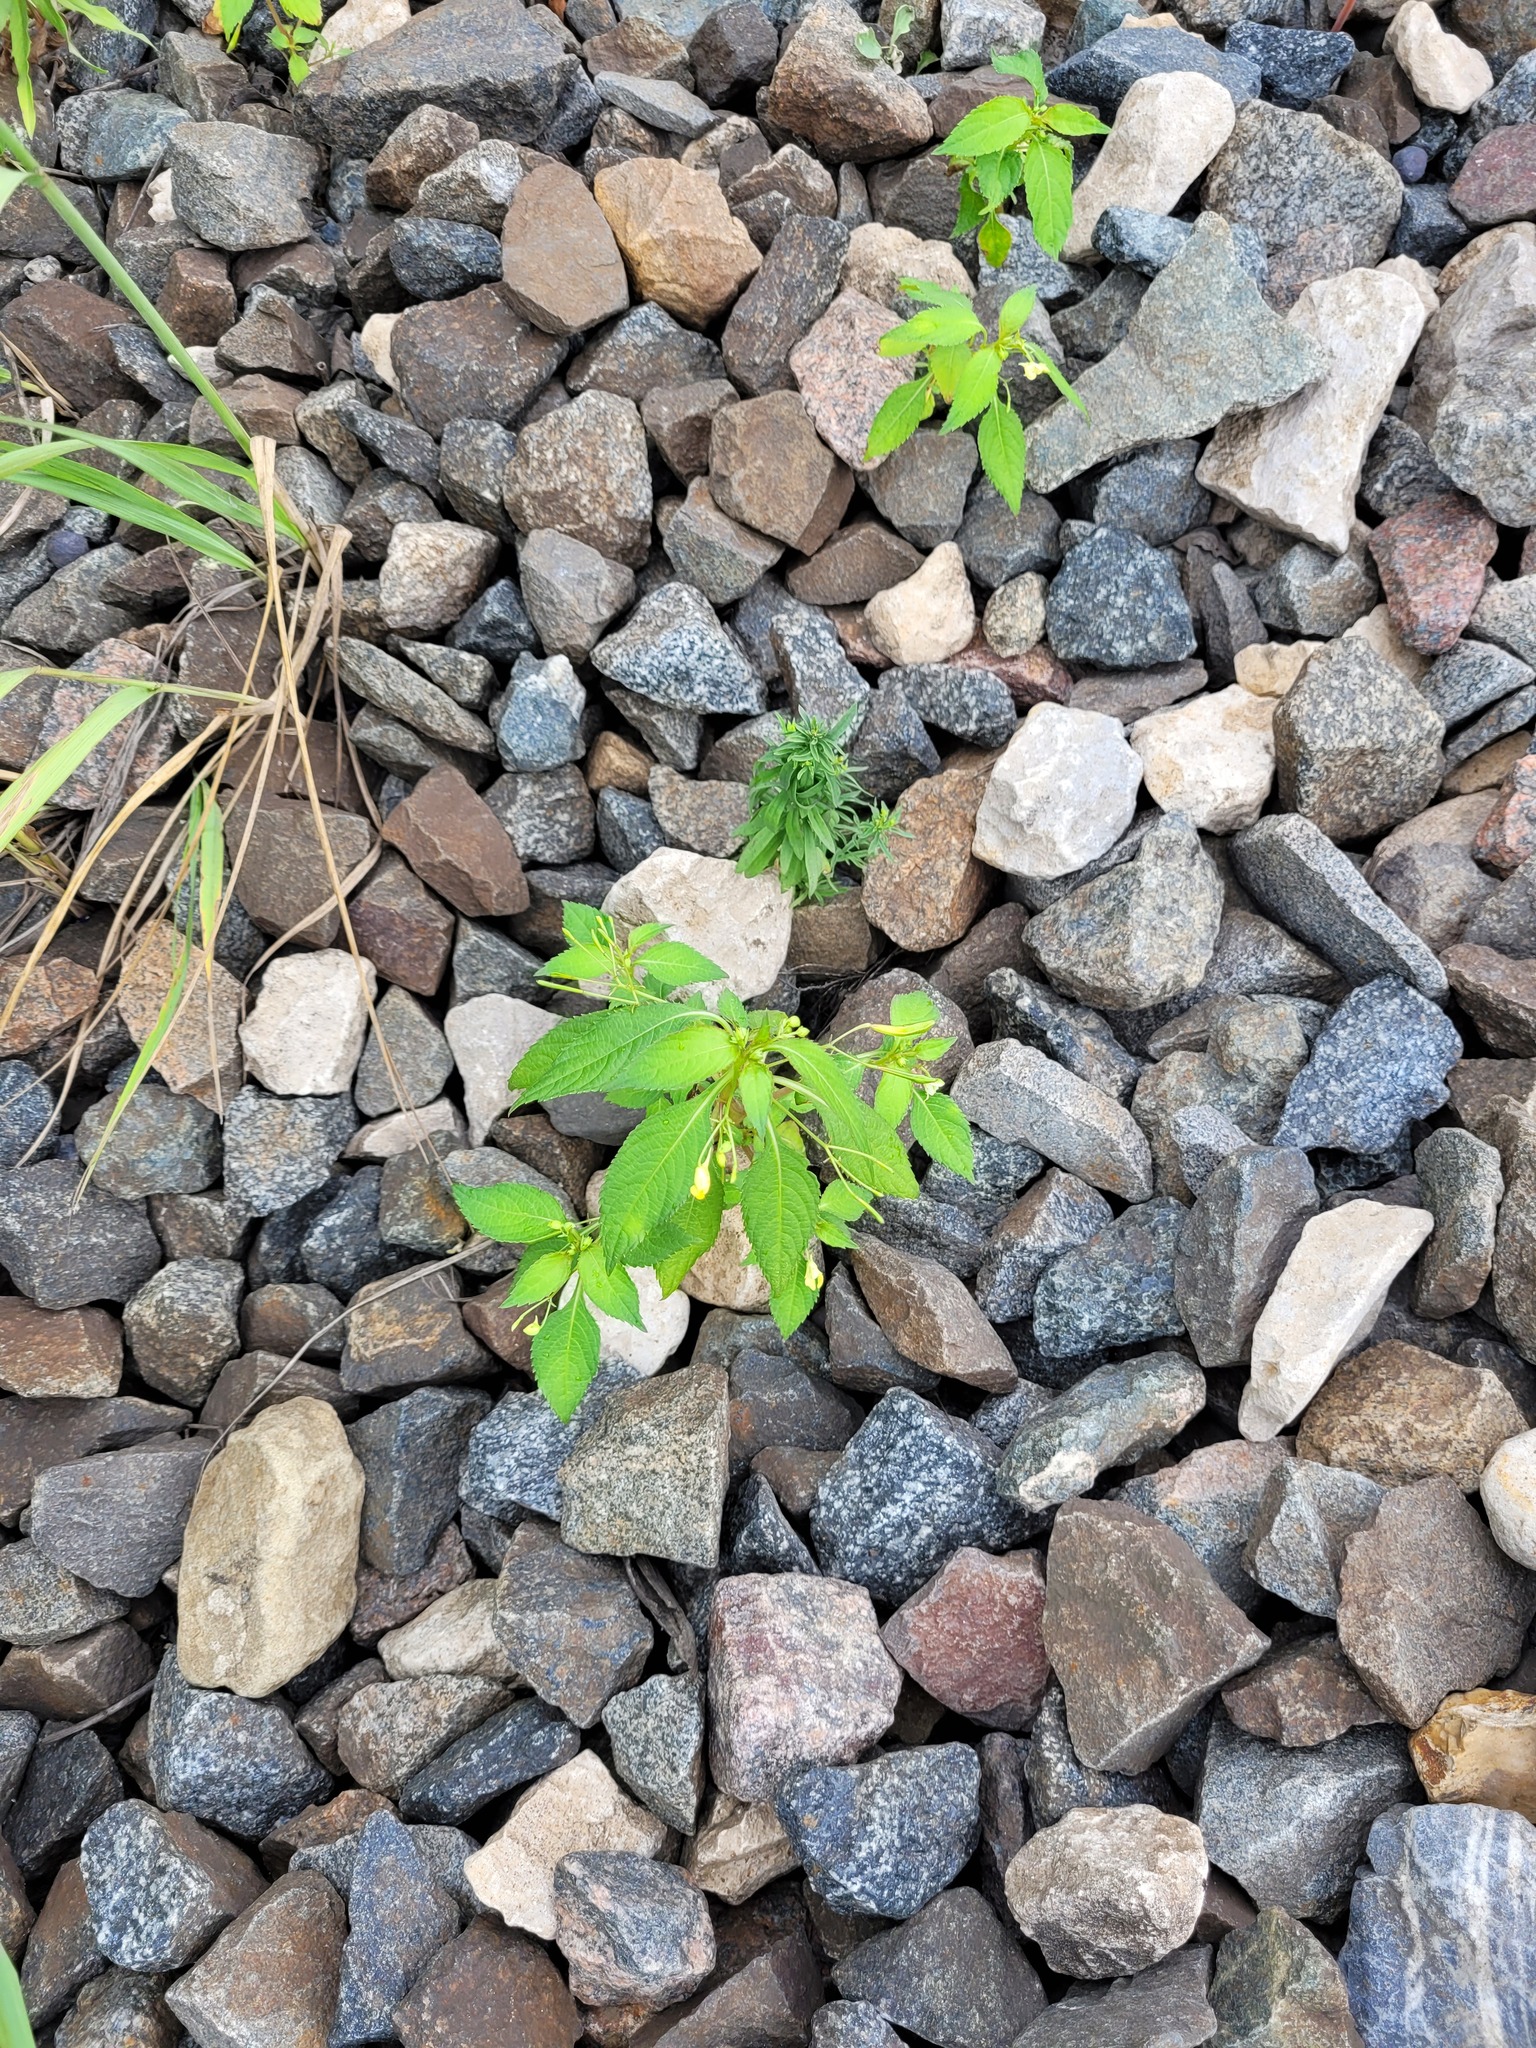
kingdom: Plantae
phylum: Tracheophyta
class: Magnoliopsida
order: Ericales
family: Balsaminaceae
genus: Impatiens
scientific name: Impatiens parviflora
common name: Small balsam
